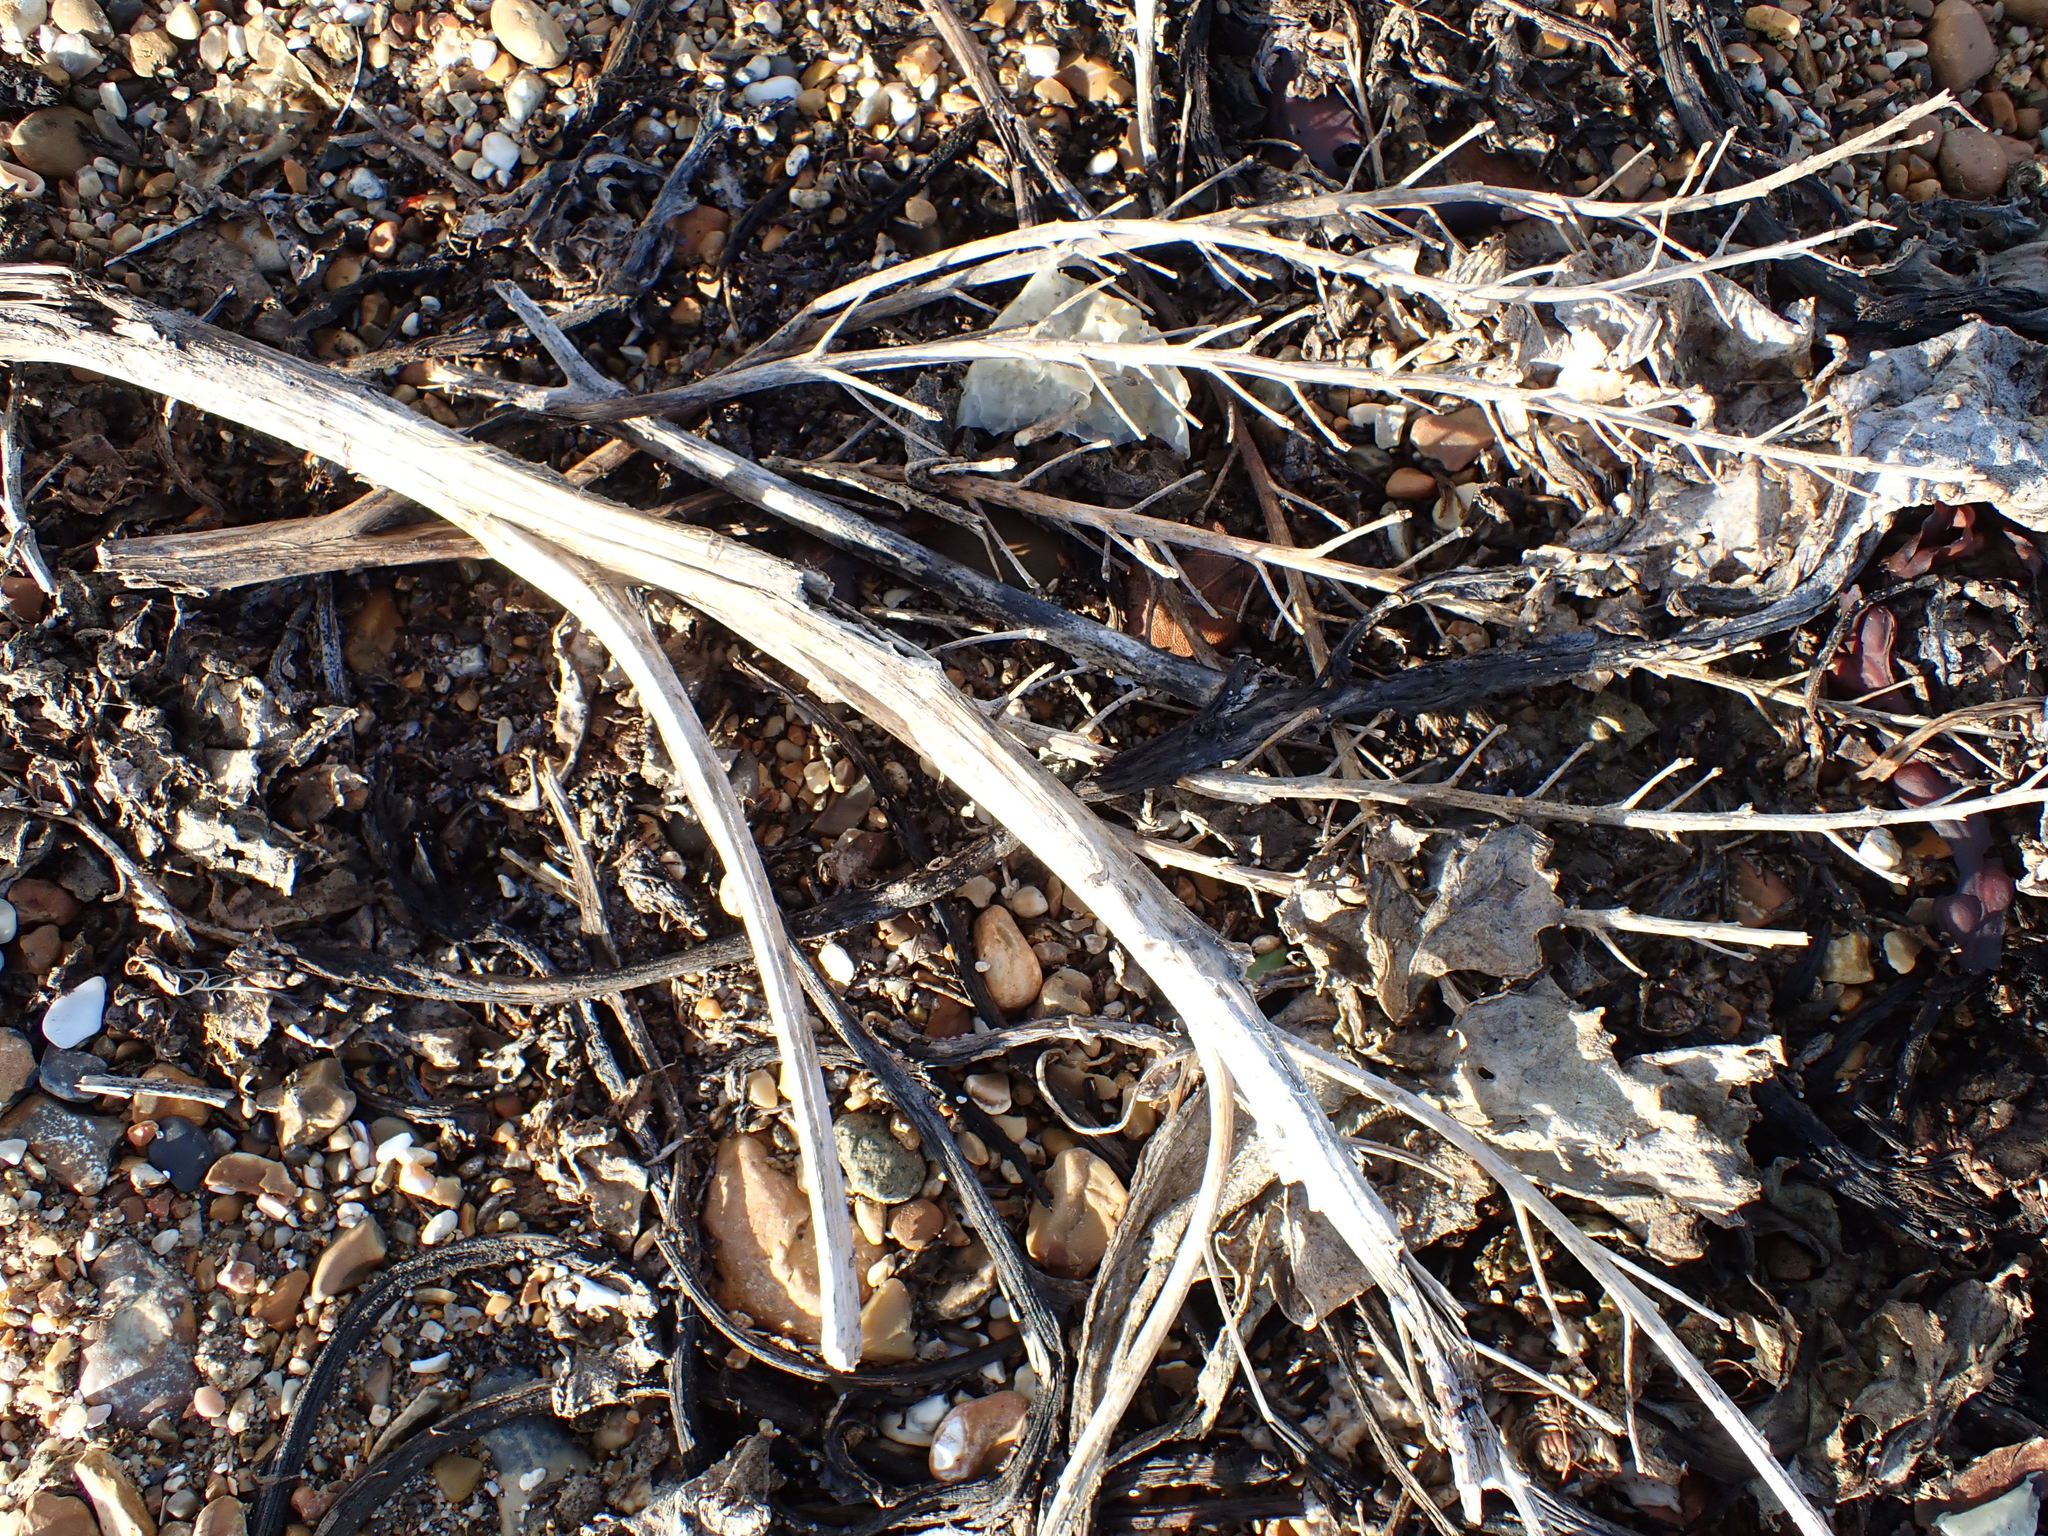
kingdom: Plantae
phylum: Tracheophyta
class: Magnoliopsida
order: Brassicales
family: Brassicaceae
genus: Crambe
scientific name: Crambe maritima
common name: Sea-kale
